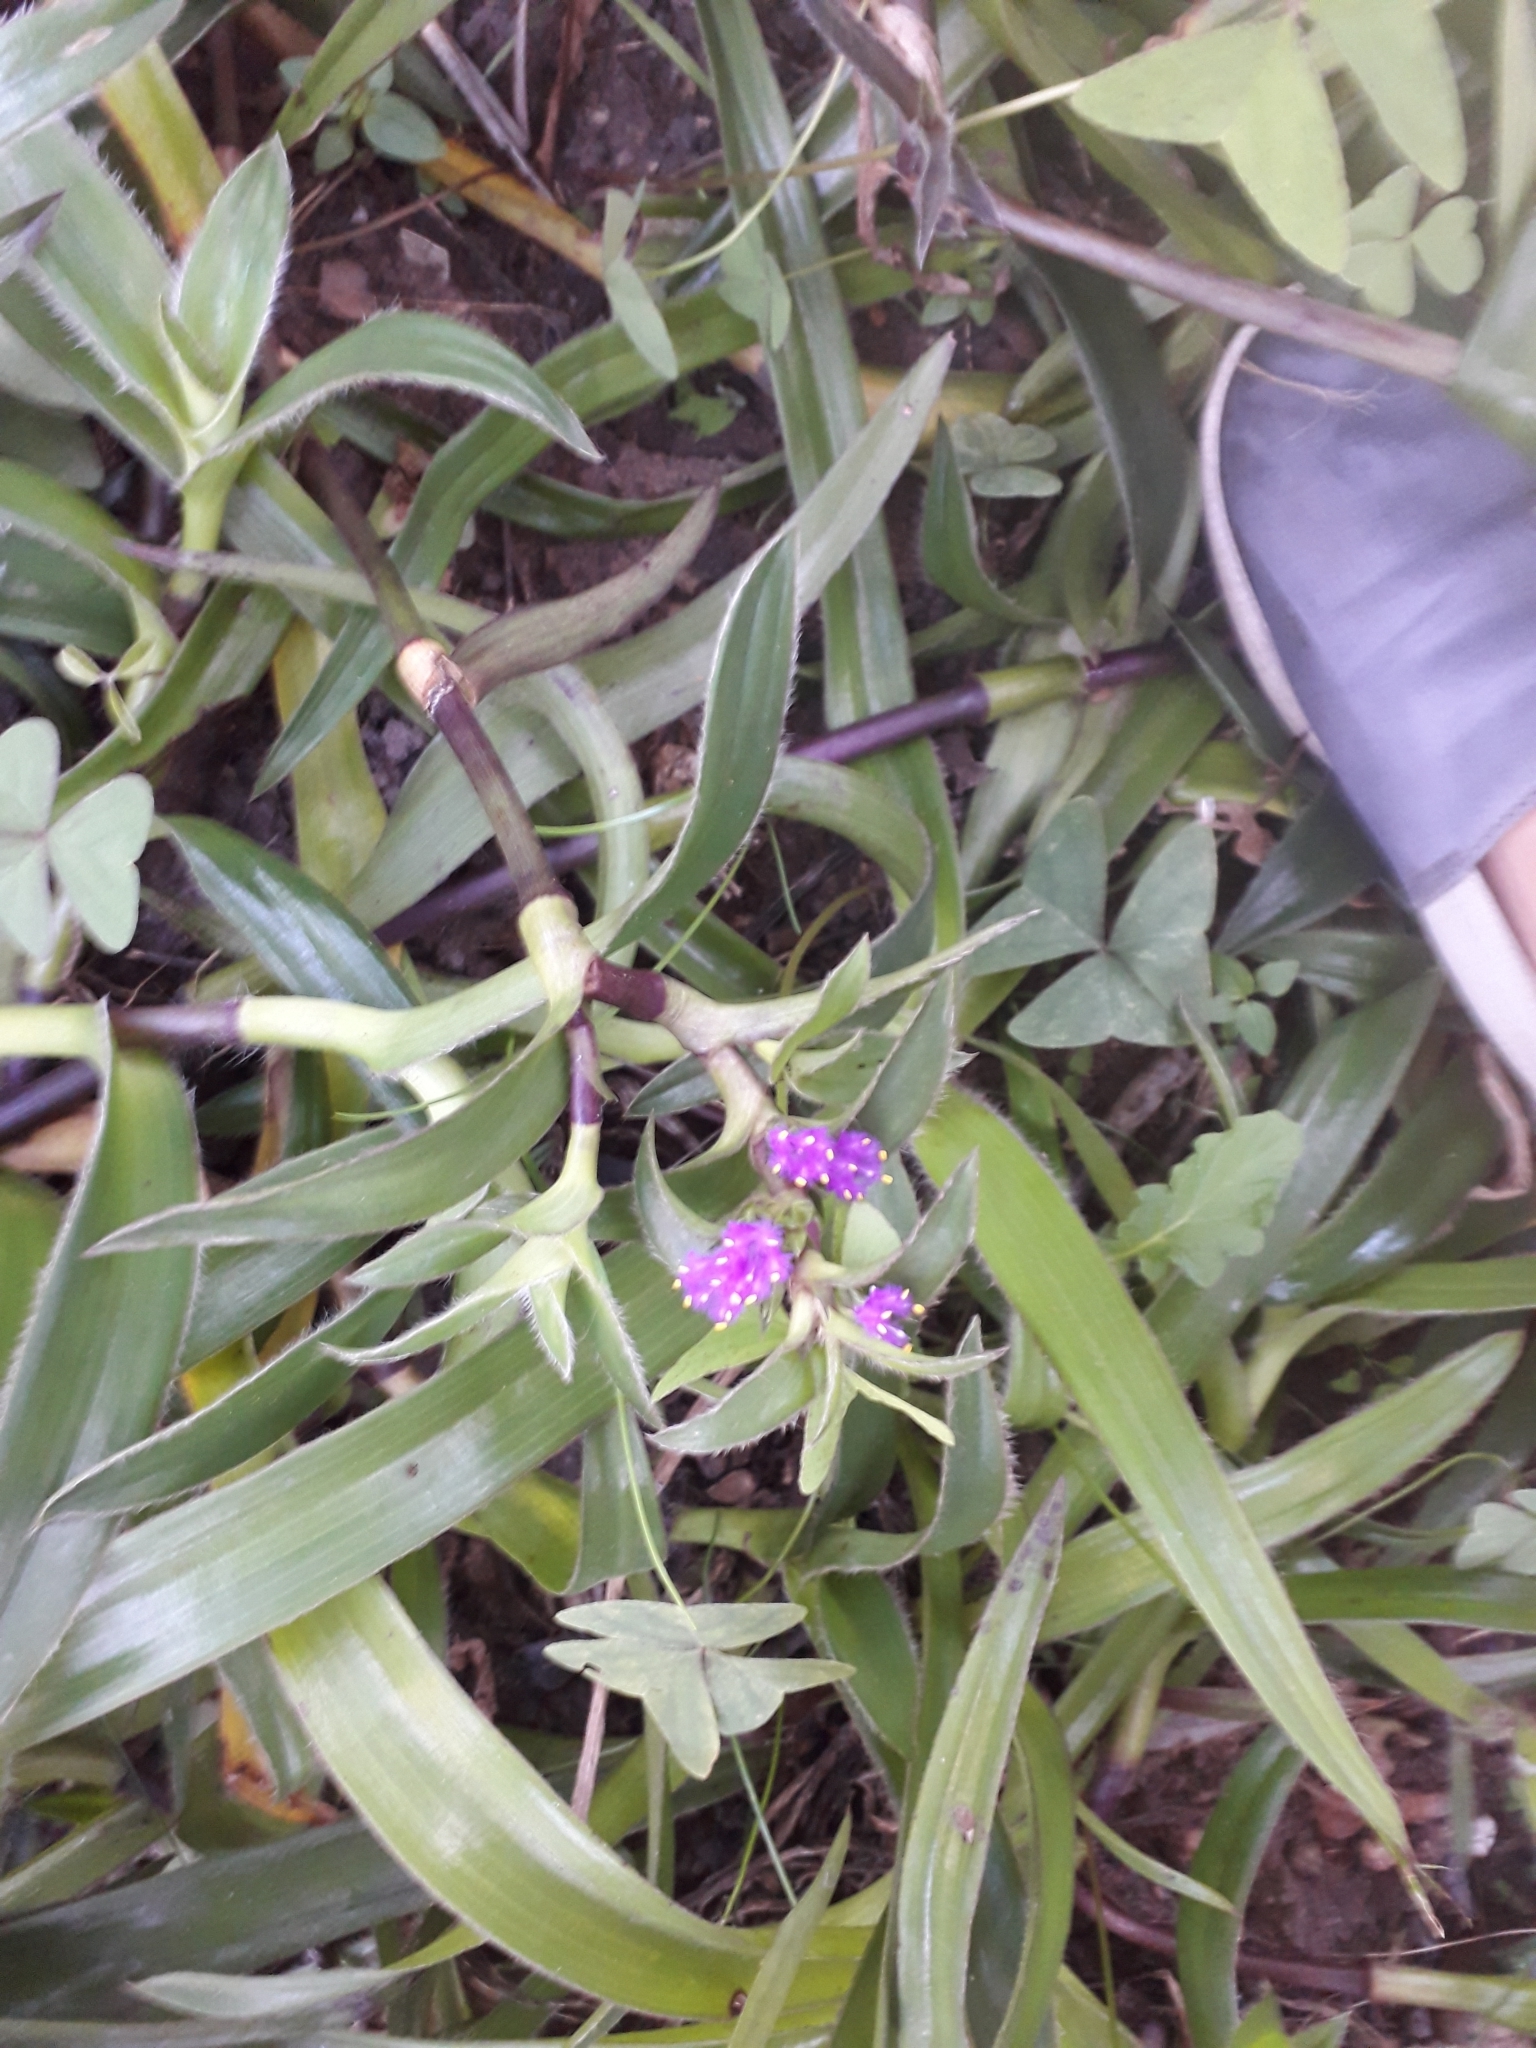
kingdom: Plantae
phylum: Tracheophyta
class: Liliopsida
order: Commelinales
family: Commelinaceae
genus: Cyanotis
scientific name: Cyanotis speciosa
